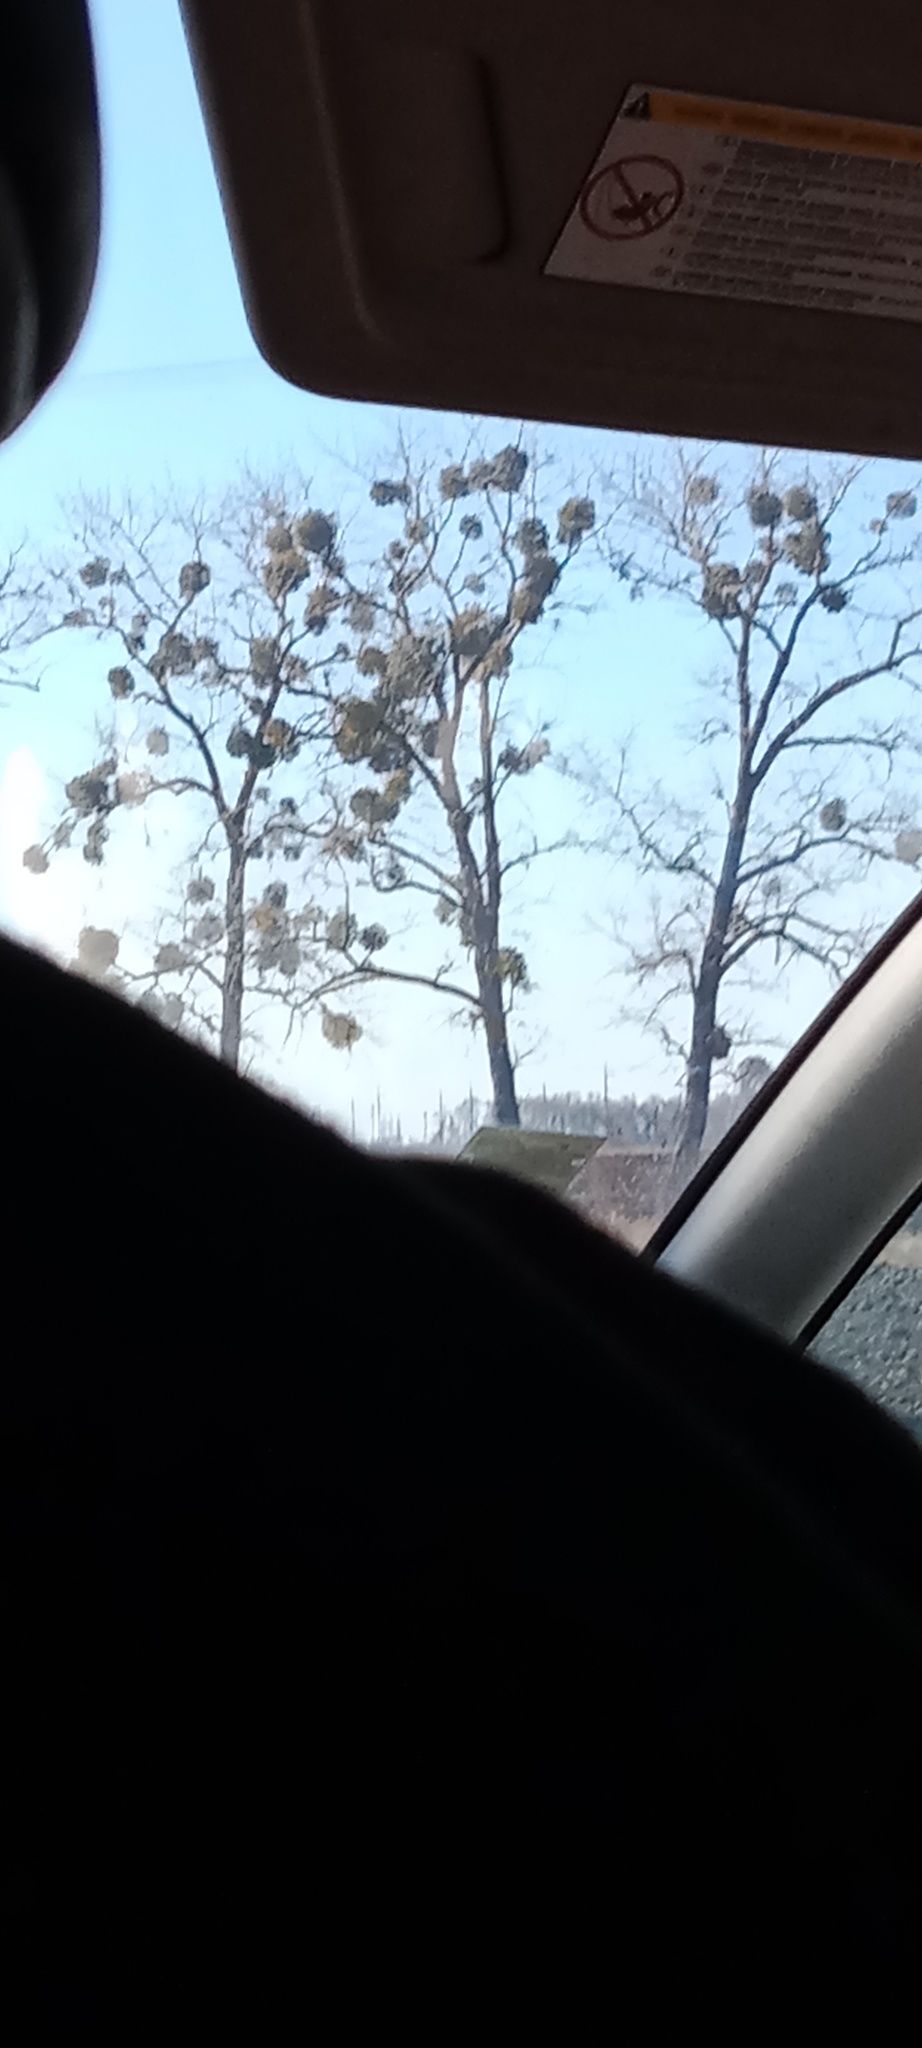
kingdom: Plantae
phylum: Tracheophyta
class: Magnoliopsida
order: Santalales
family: Viscaceae
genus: Viscum
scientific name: Viscum album
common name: Mistletoe
